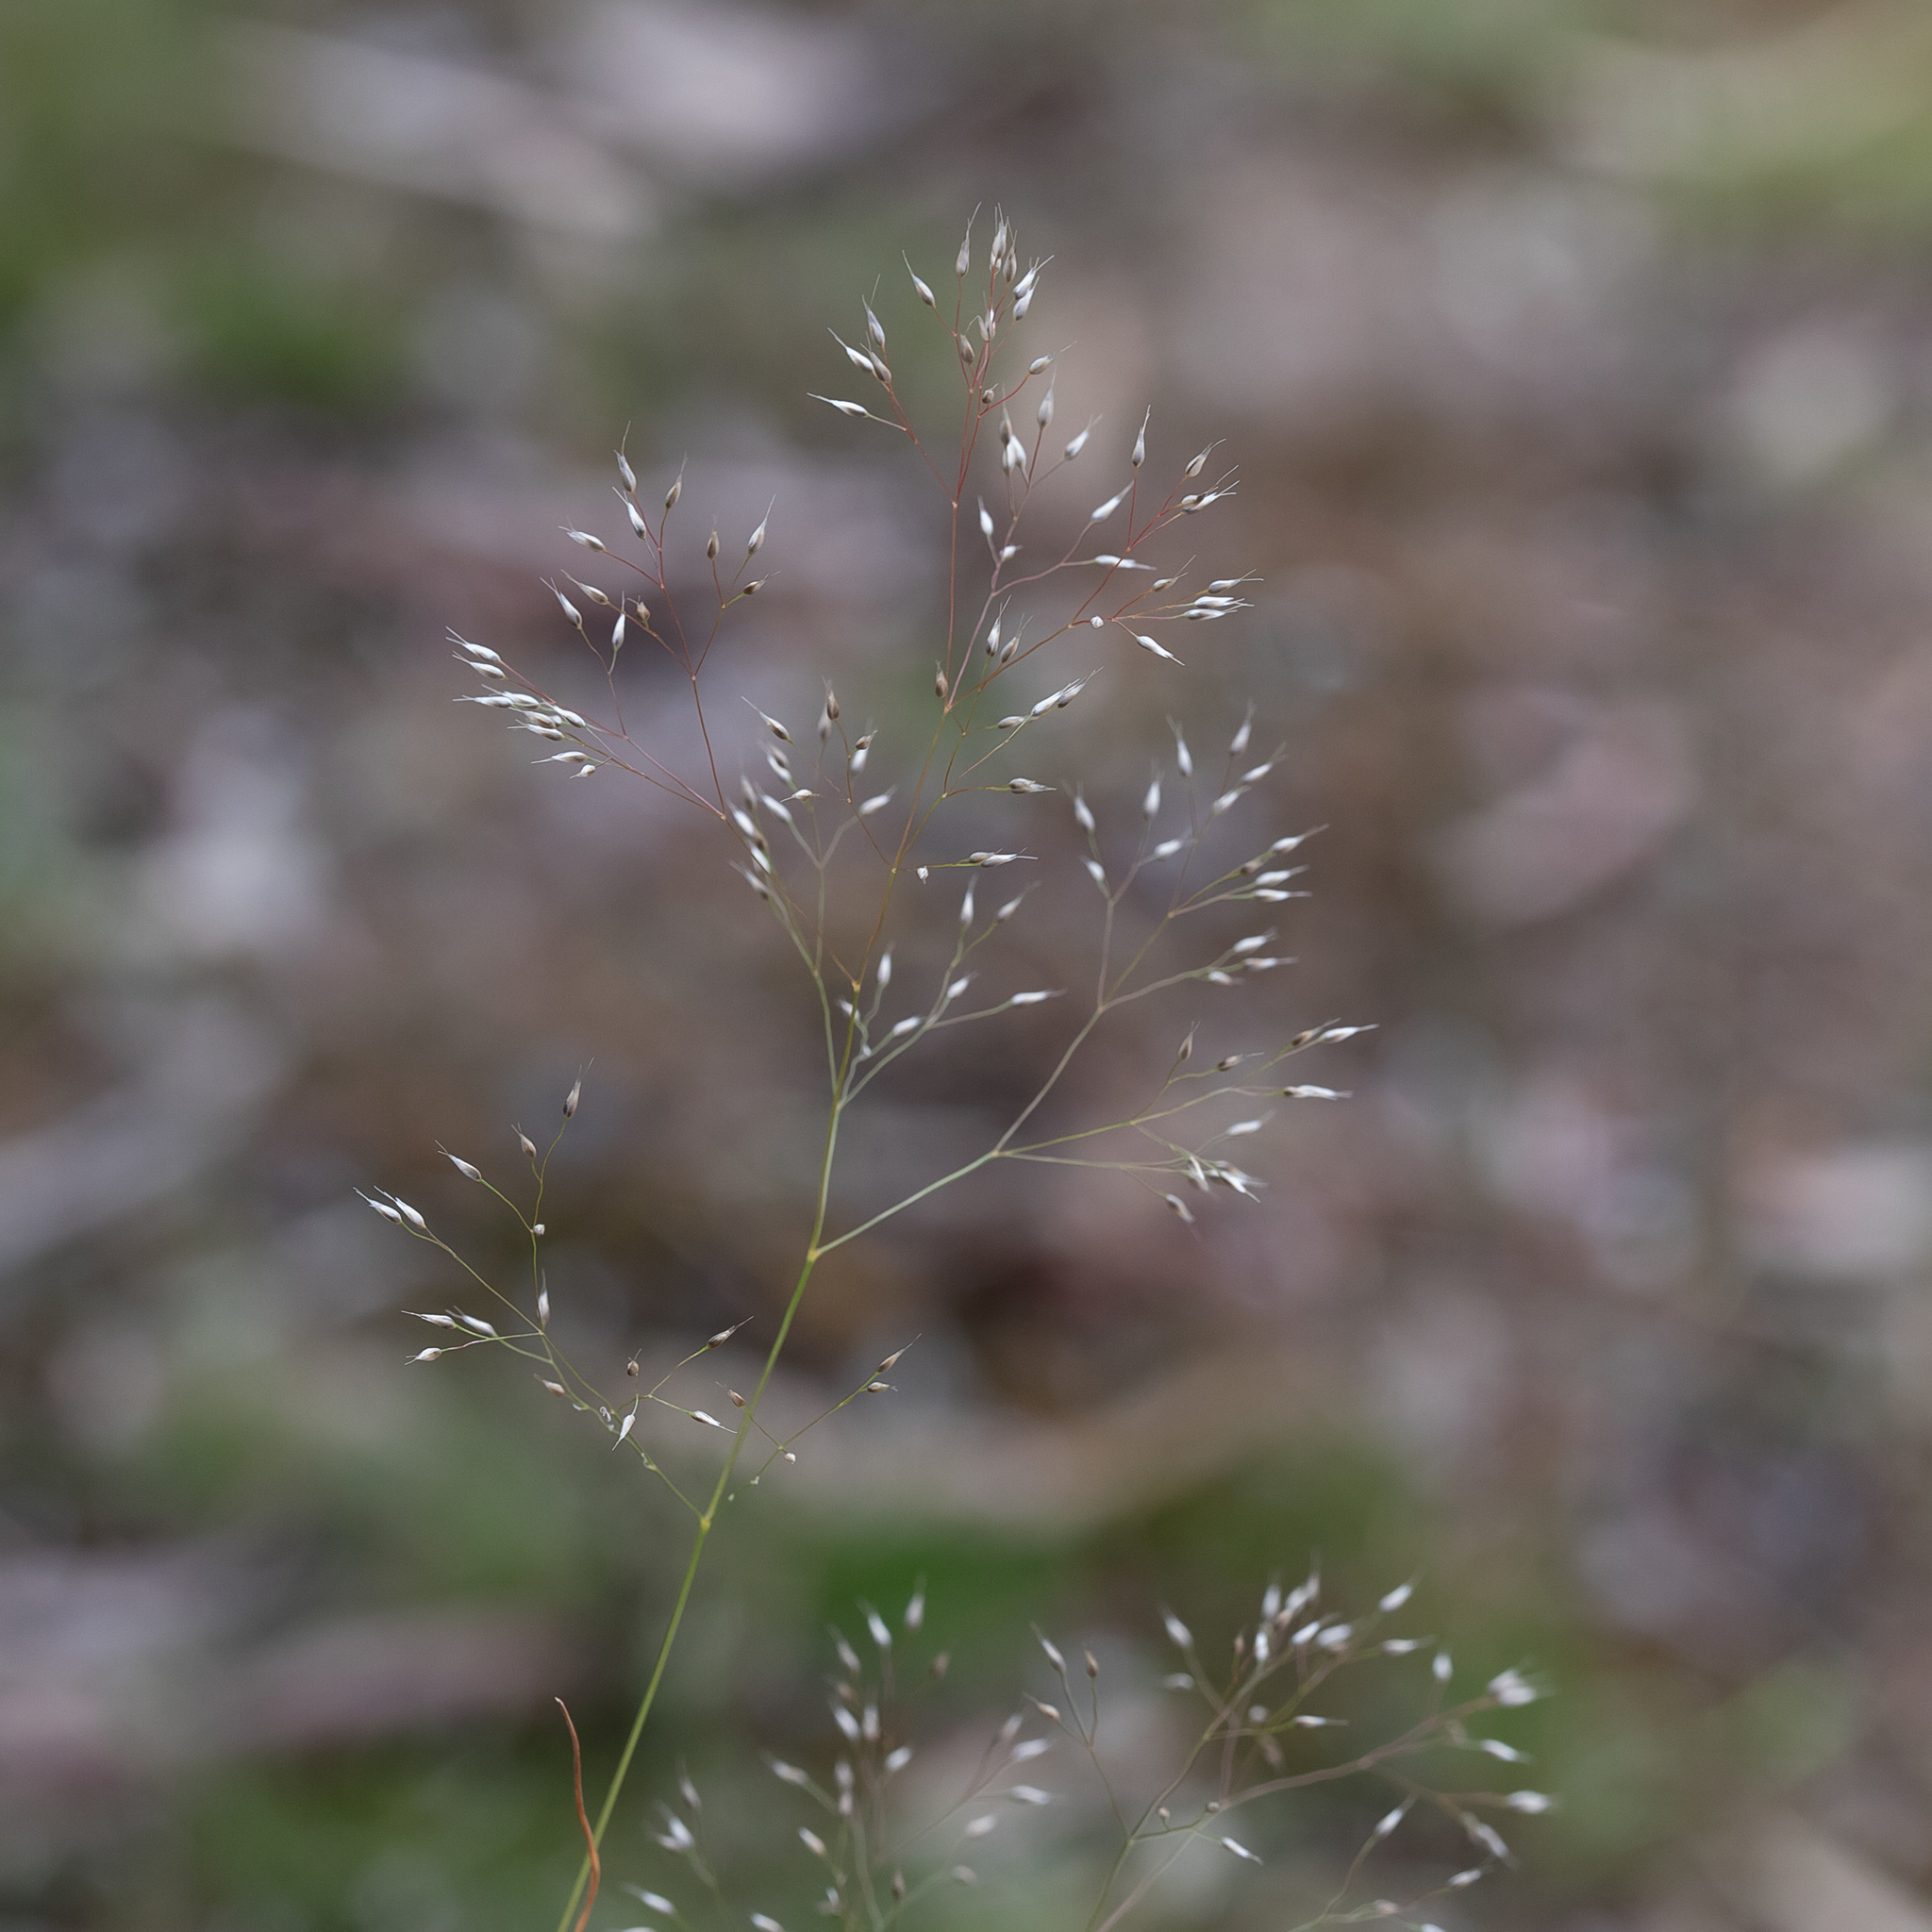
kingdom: Plantae
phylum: Tracheophyta
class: Liliopsida
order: Poales
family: Poaceae
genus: Aira
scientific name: Aira caryophyllea
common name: Silver hairgrass
